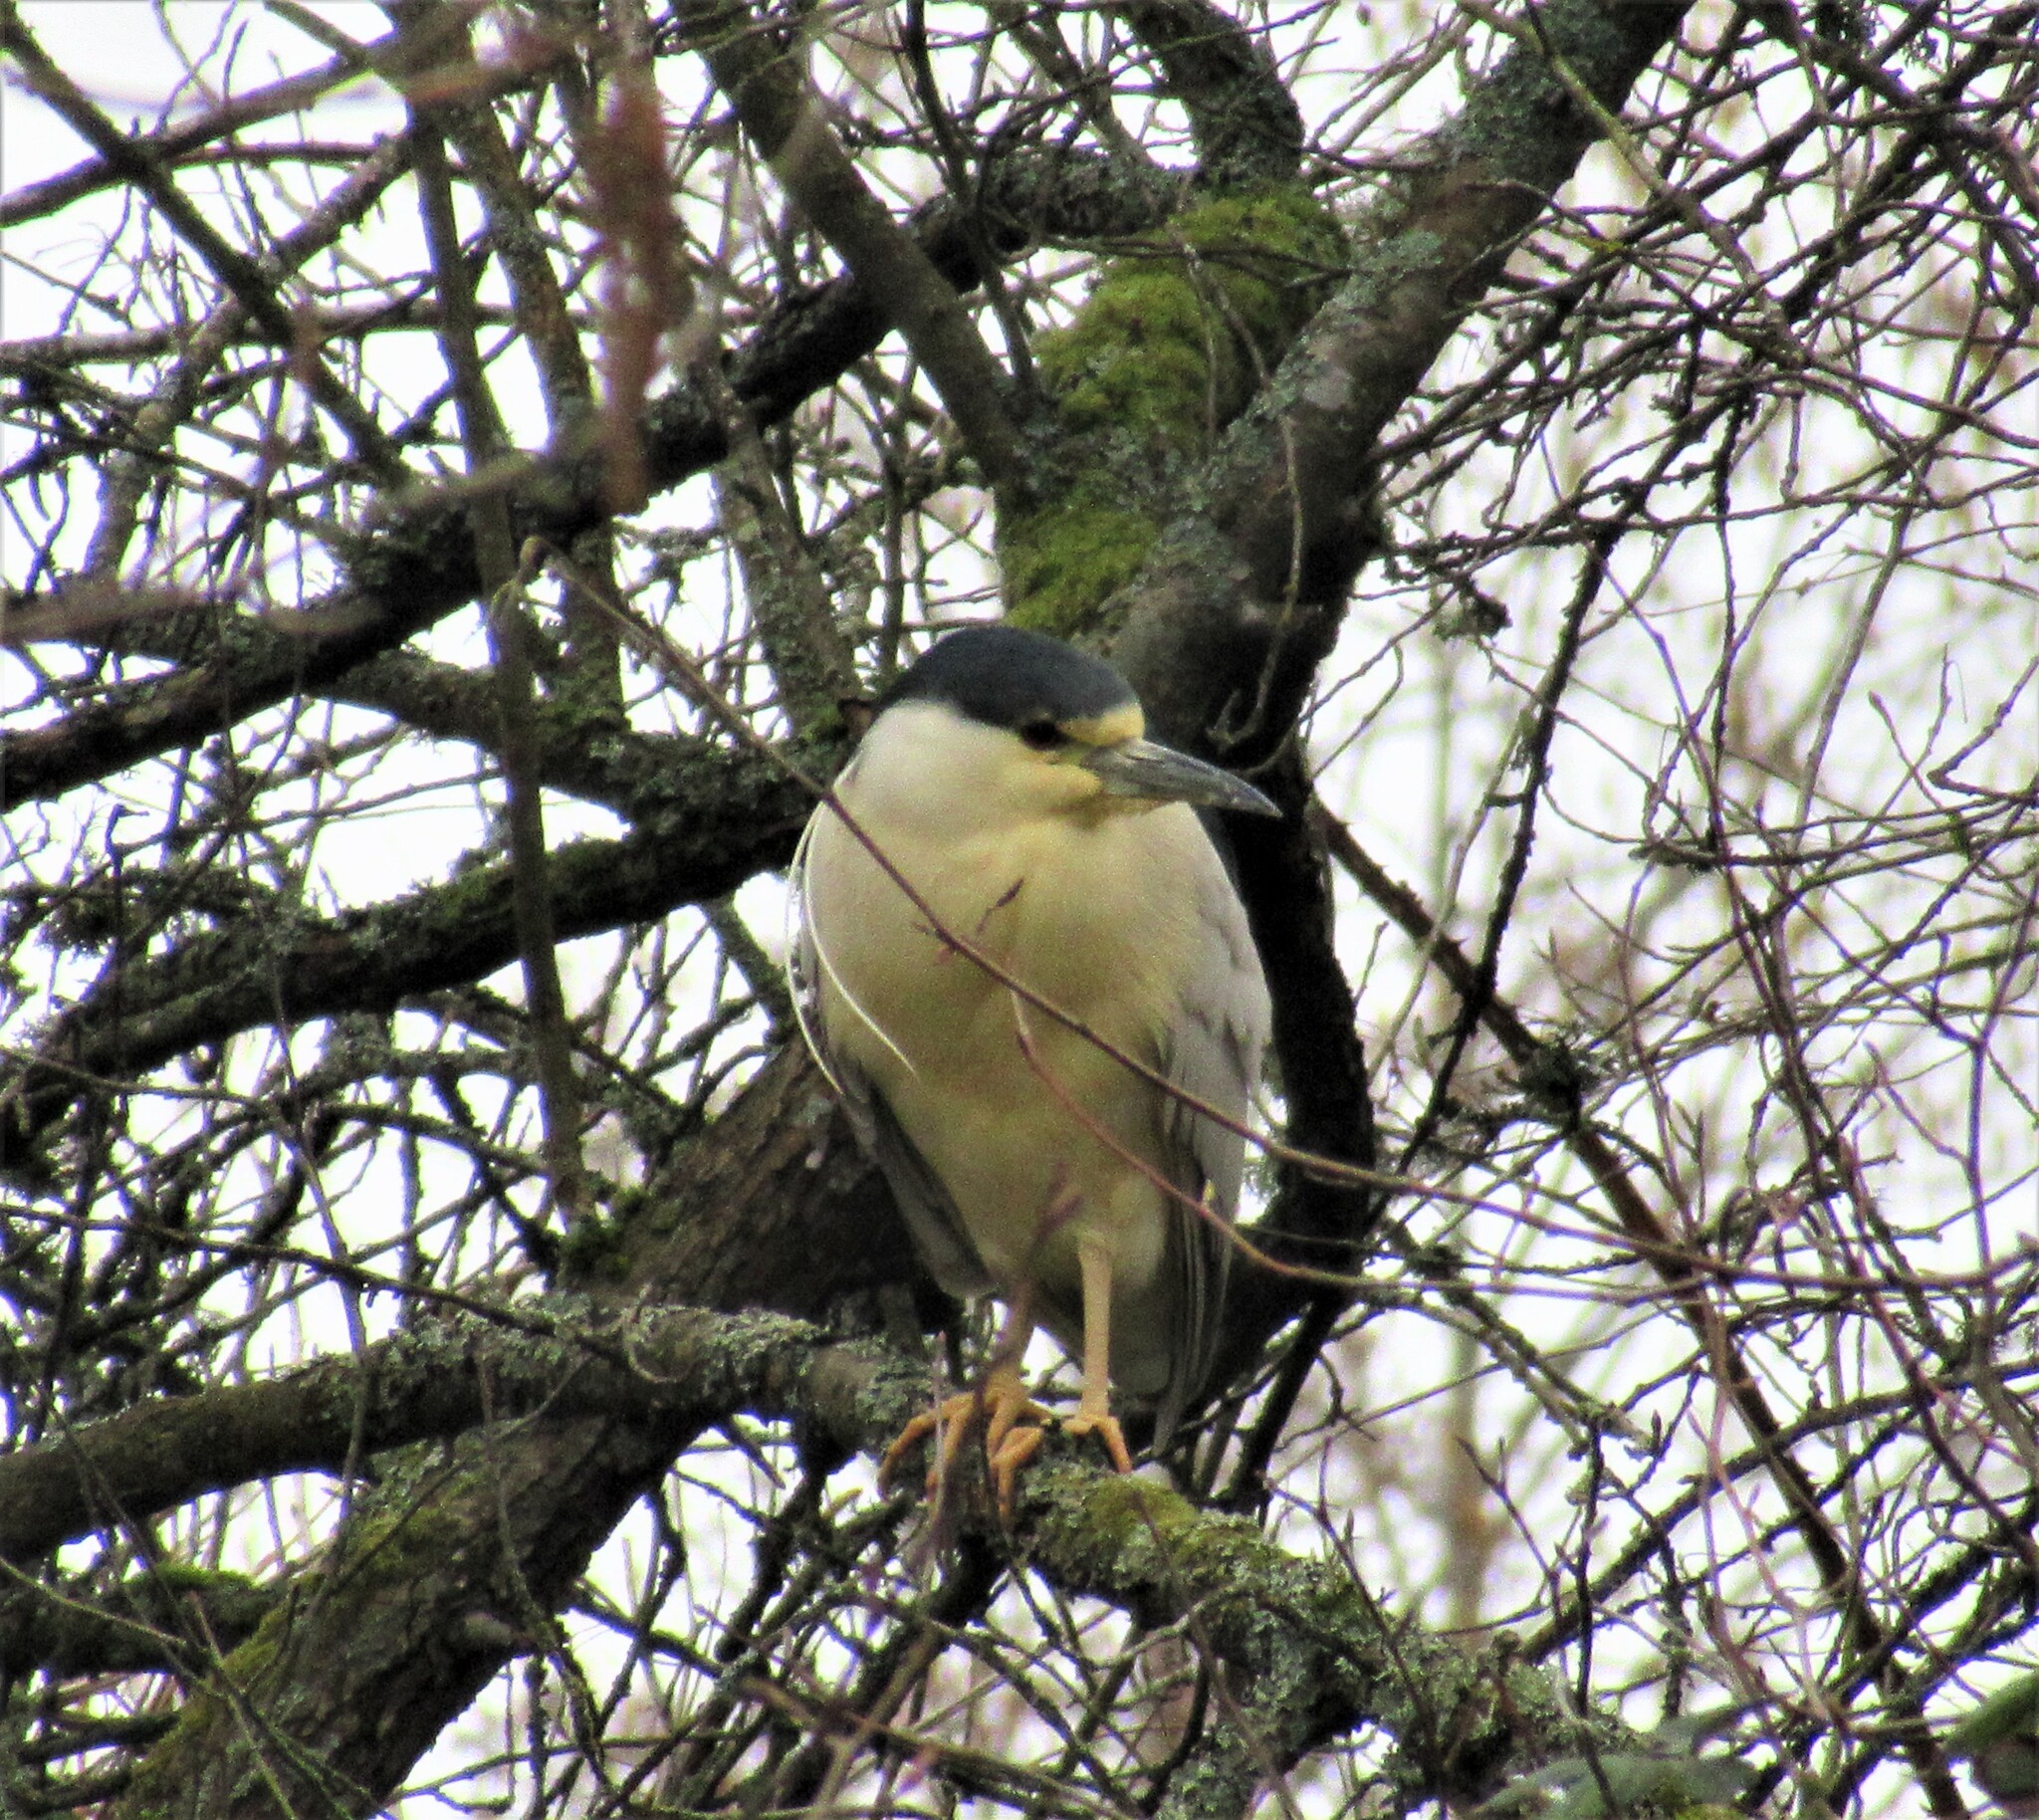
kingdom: Animalia
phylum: Chordata
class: Aves
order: Pelecaniformes
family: Ardeidae
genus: Nycticorax
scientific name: Nycticorax nycticorax
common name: Black-crowned night heron
